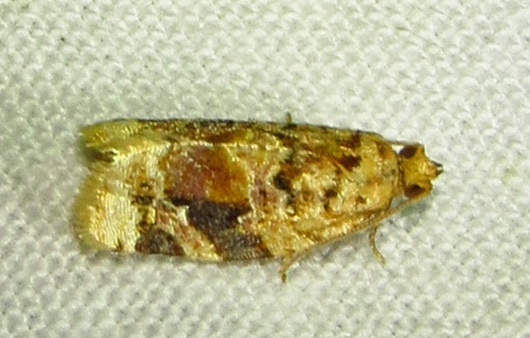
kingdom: Animalia
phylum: Arthropoda
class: Insecta
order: Lepidoptera
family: Tortricidae
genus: Argyrotaenia
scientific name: Argyrotaenia velutinana
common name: Red-banded leafroller moth
